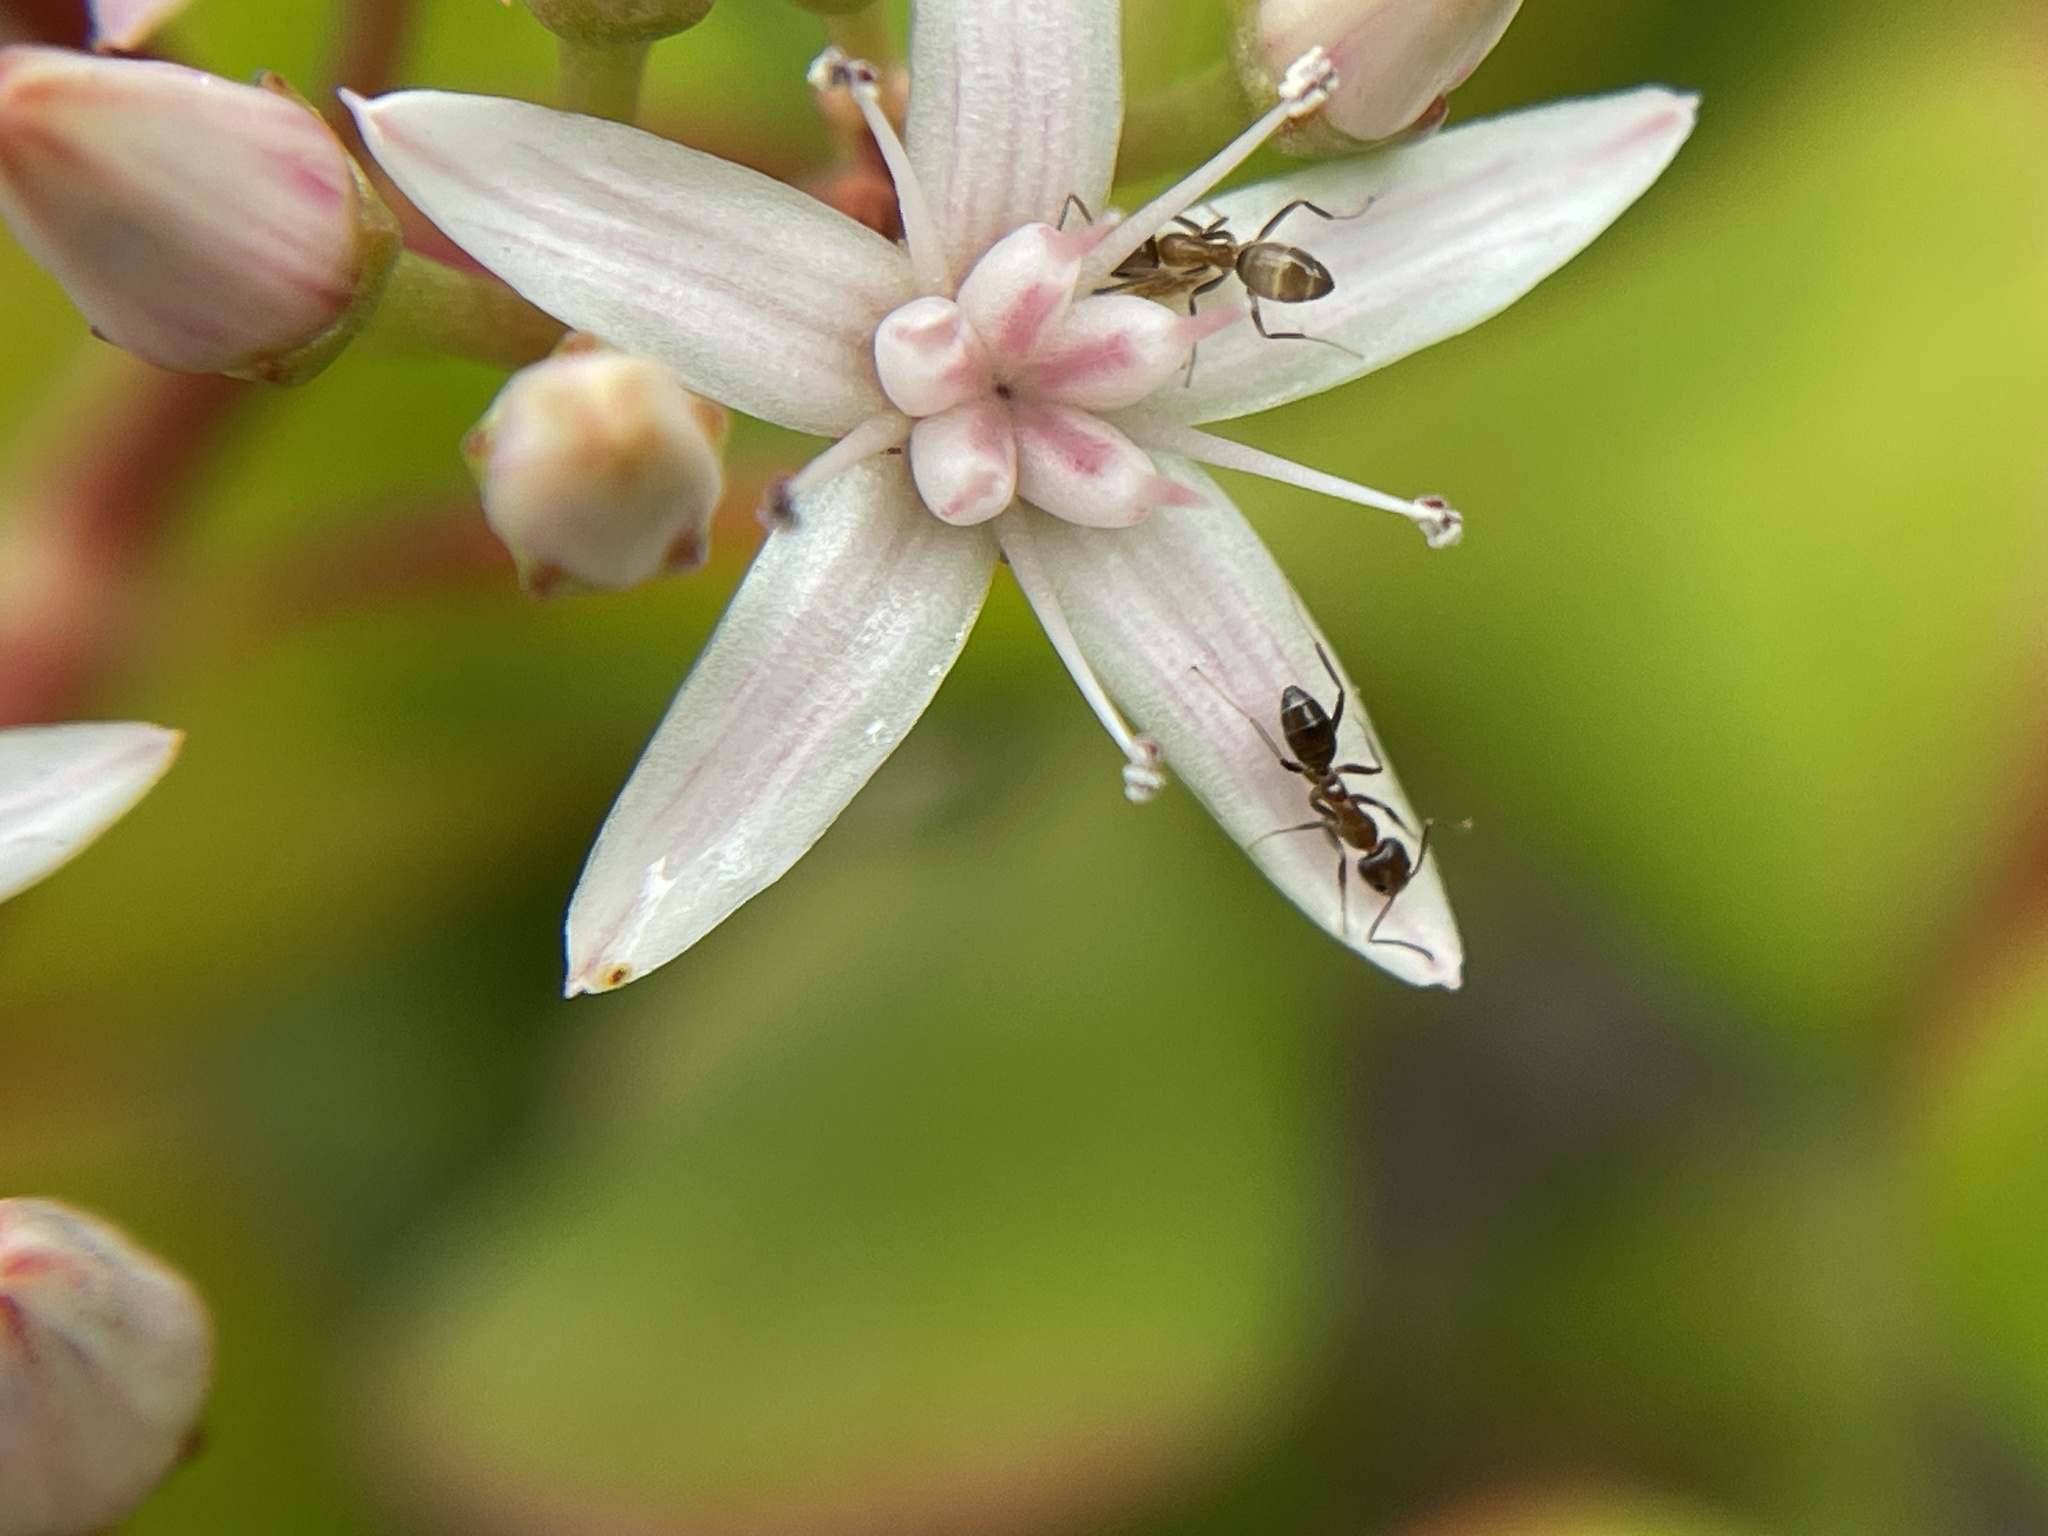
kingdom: Animalia
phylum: Arthropoda
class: Insecta
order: Hymenoptera
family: Formicidae
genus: Linepithema
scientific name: Linepithema humile
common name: Argentine ant
